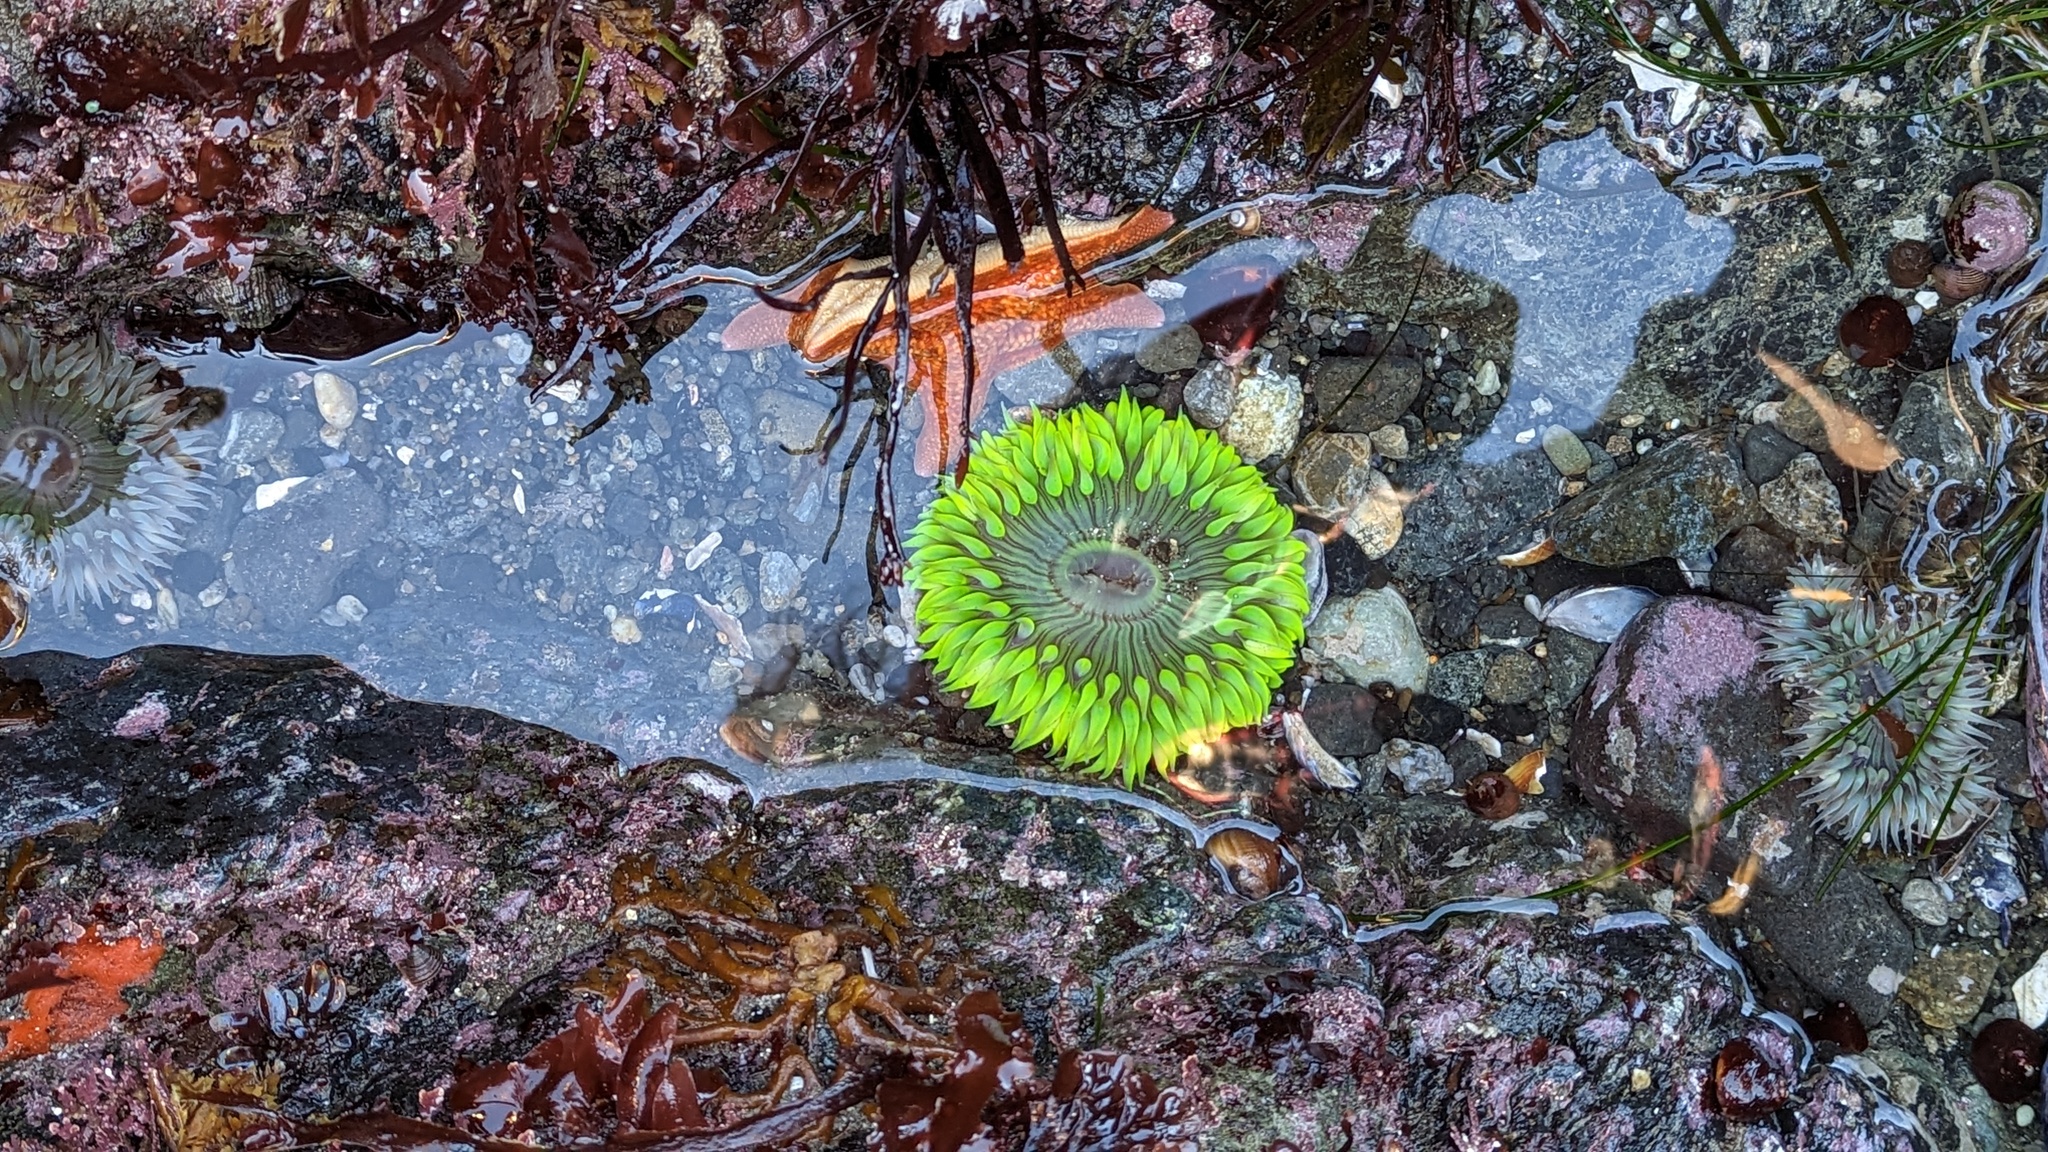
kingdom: Animalia
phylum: Cnidaria
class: Anthozoa
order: Actiniaria
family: Actiniidae
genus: Anthopleura
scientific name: Anthopleura sola
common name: Sun anemone
